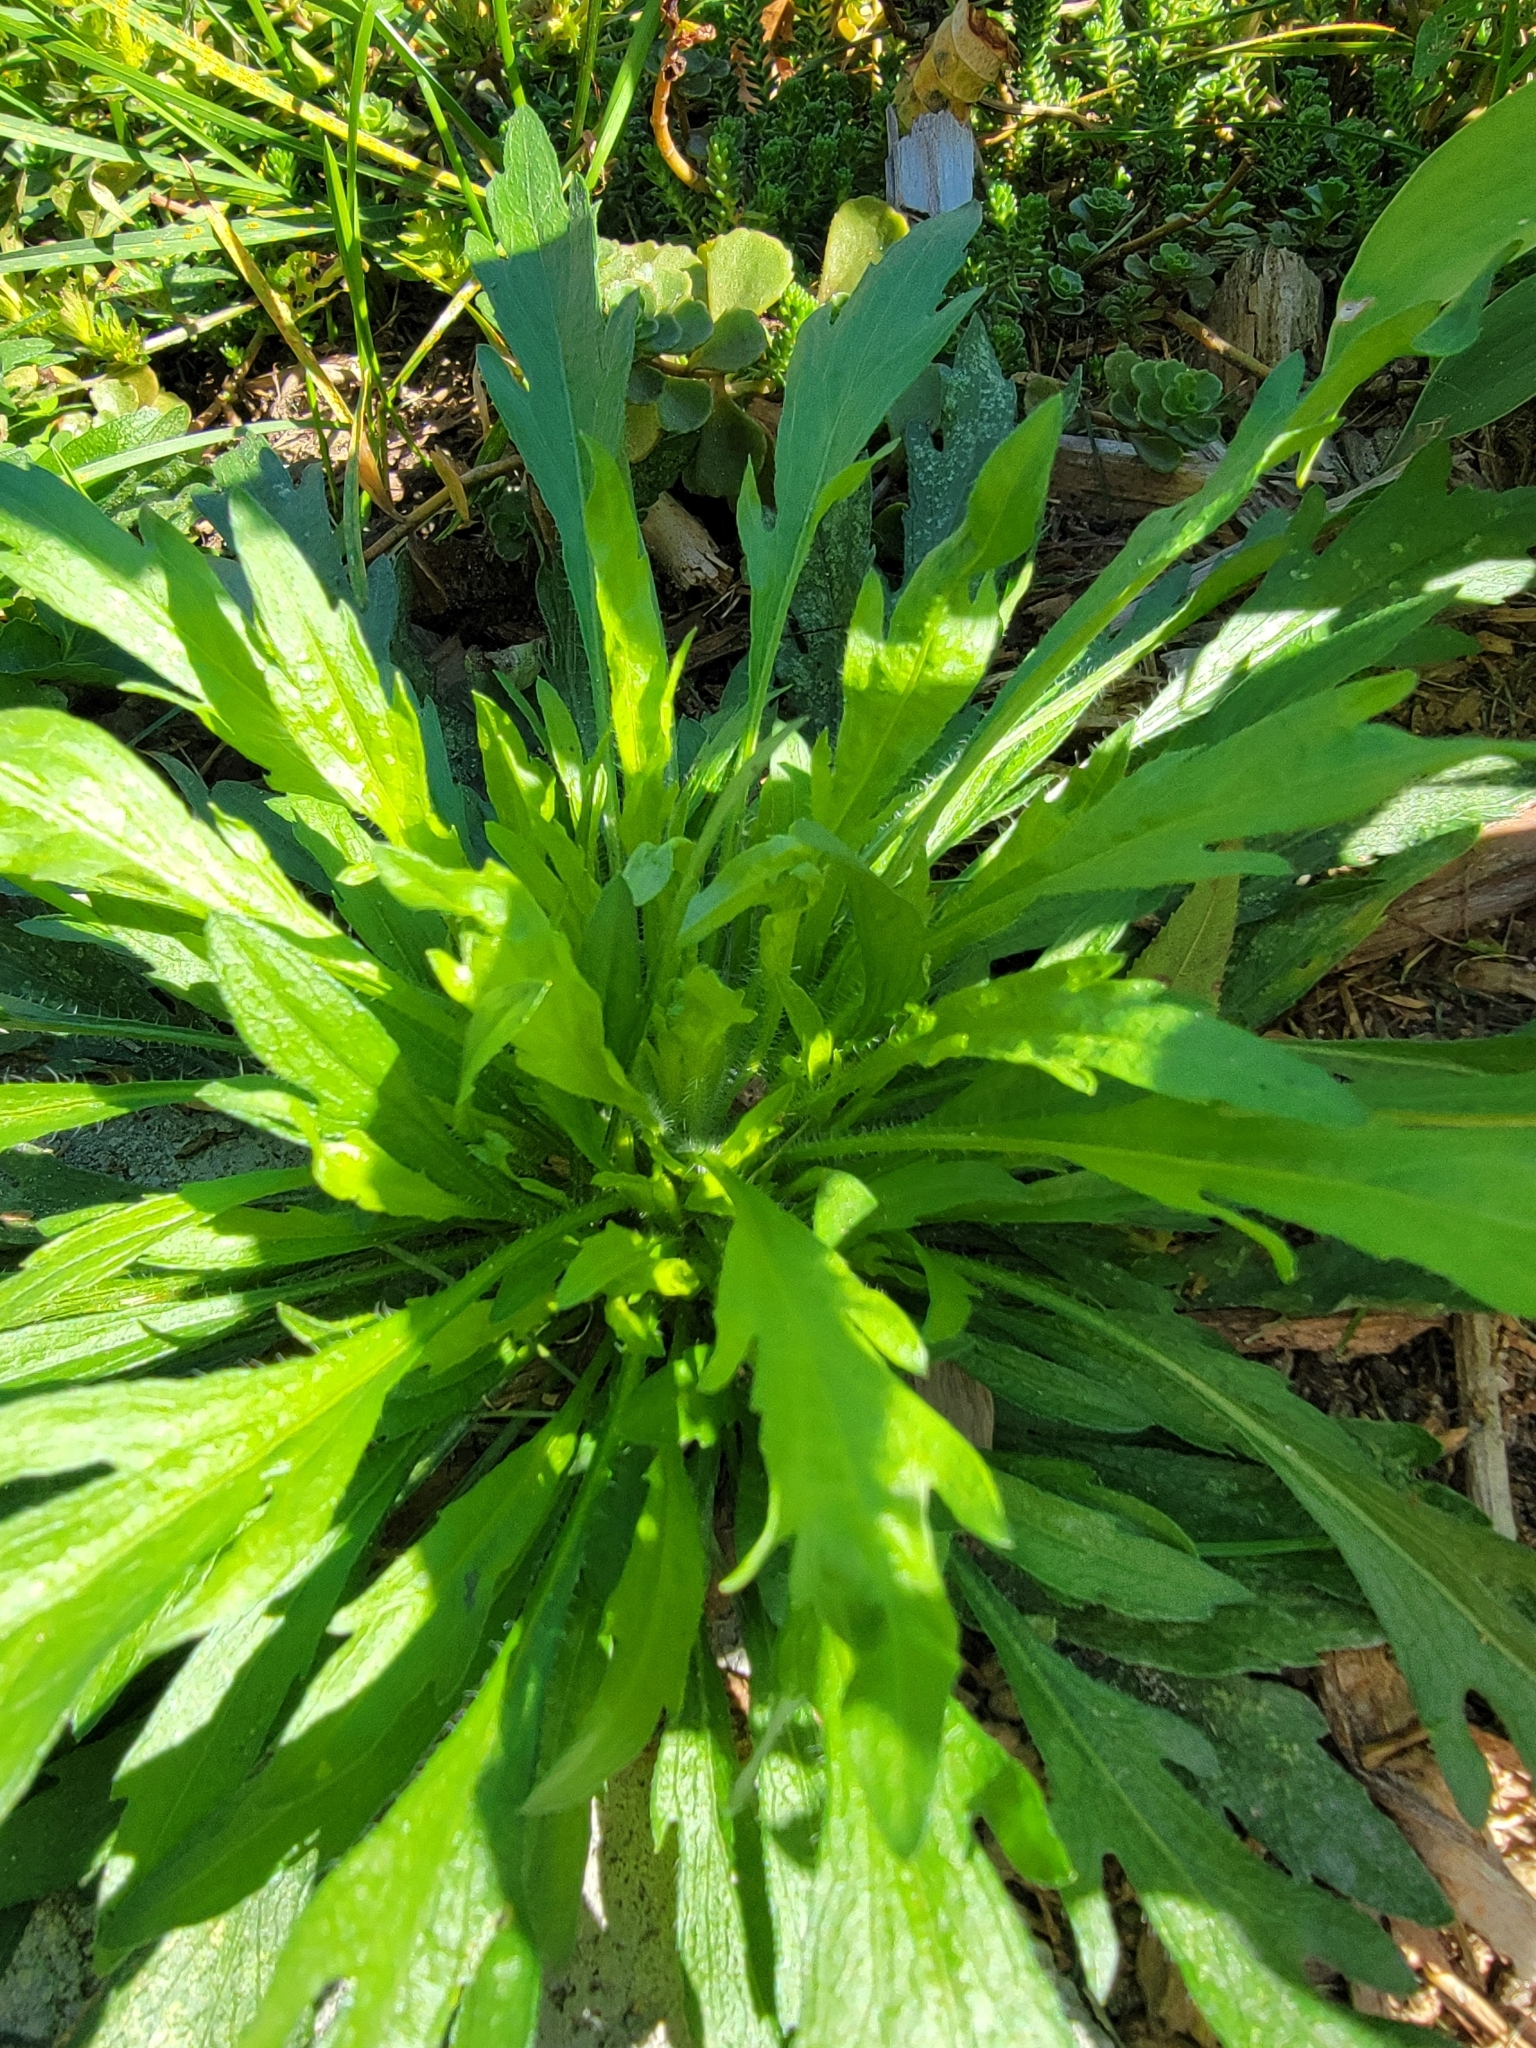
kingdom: Plantae
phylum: Tracheophyta
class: Magnoliopsida
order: Asterales
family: Asteraceae
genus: Erigeron
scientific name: Erigeron canadensis
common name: Canadian fleabane
